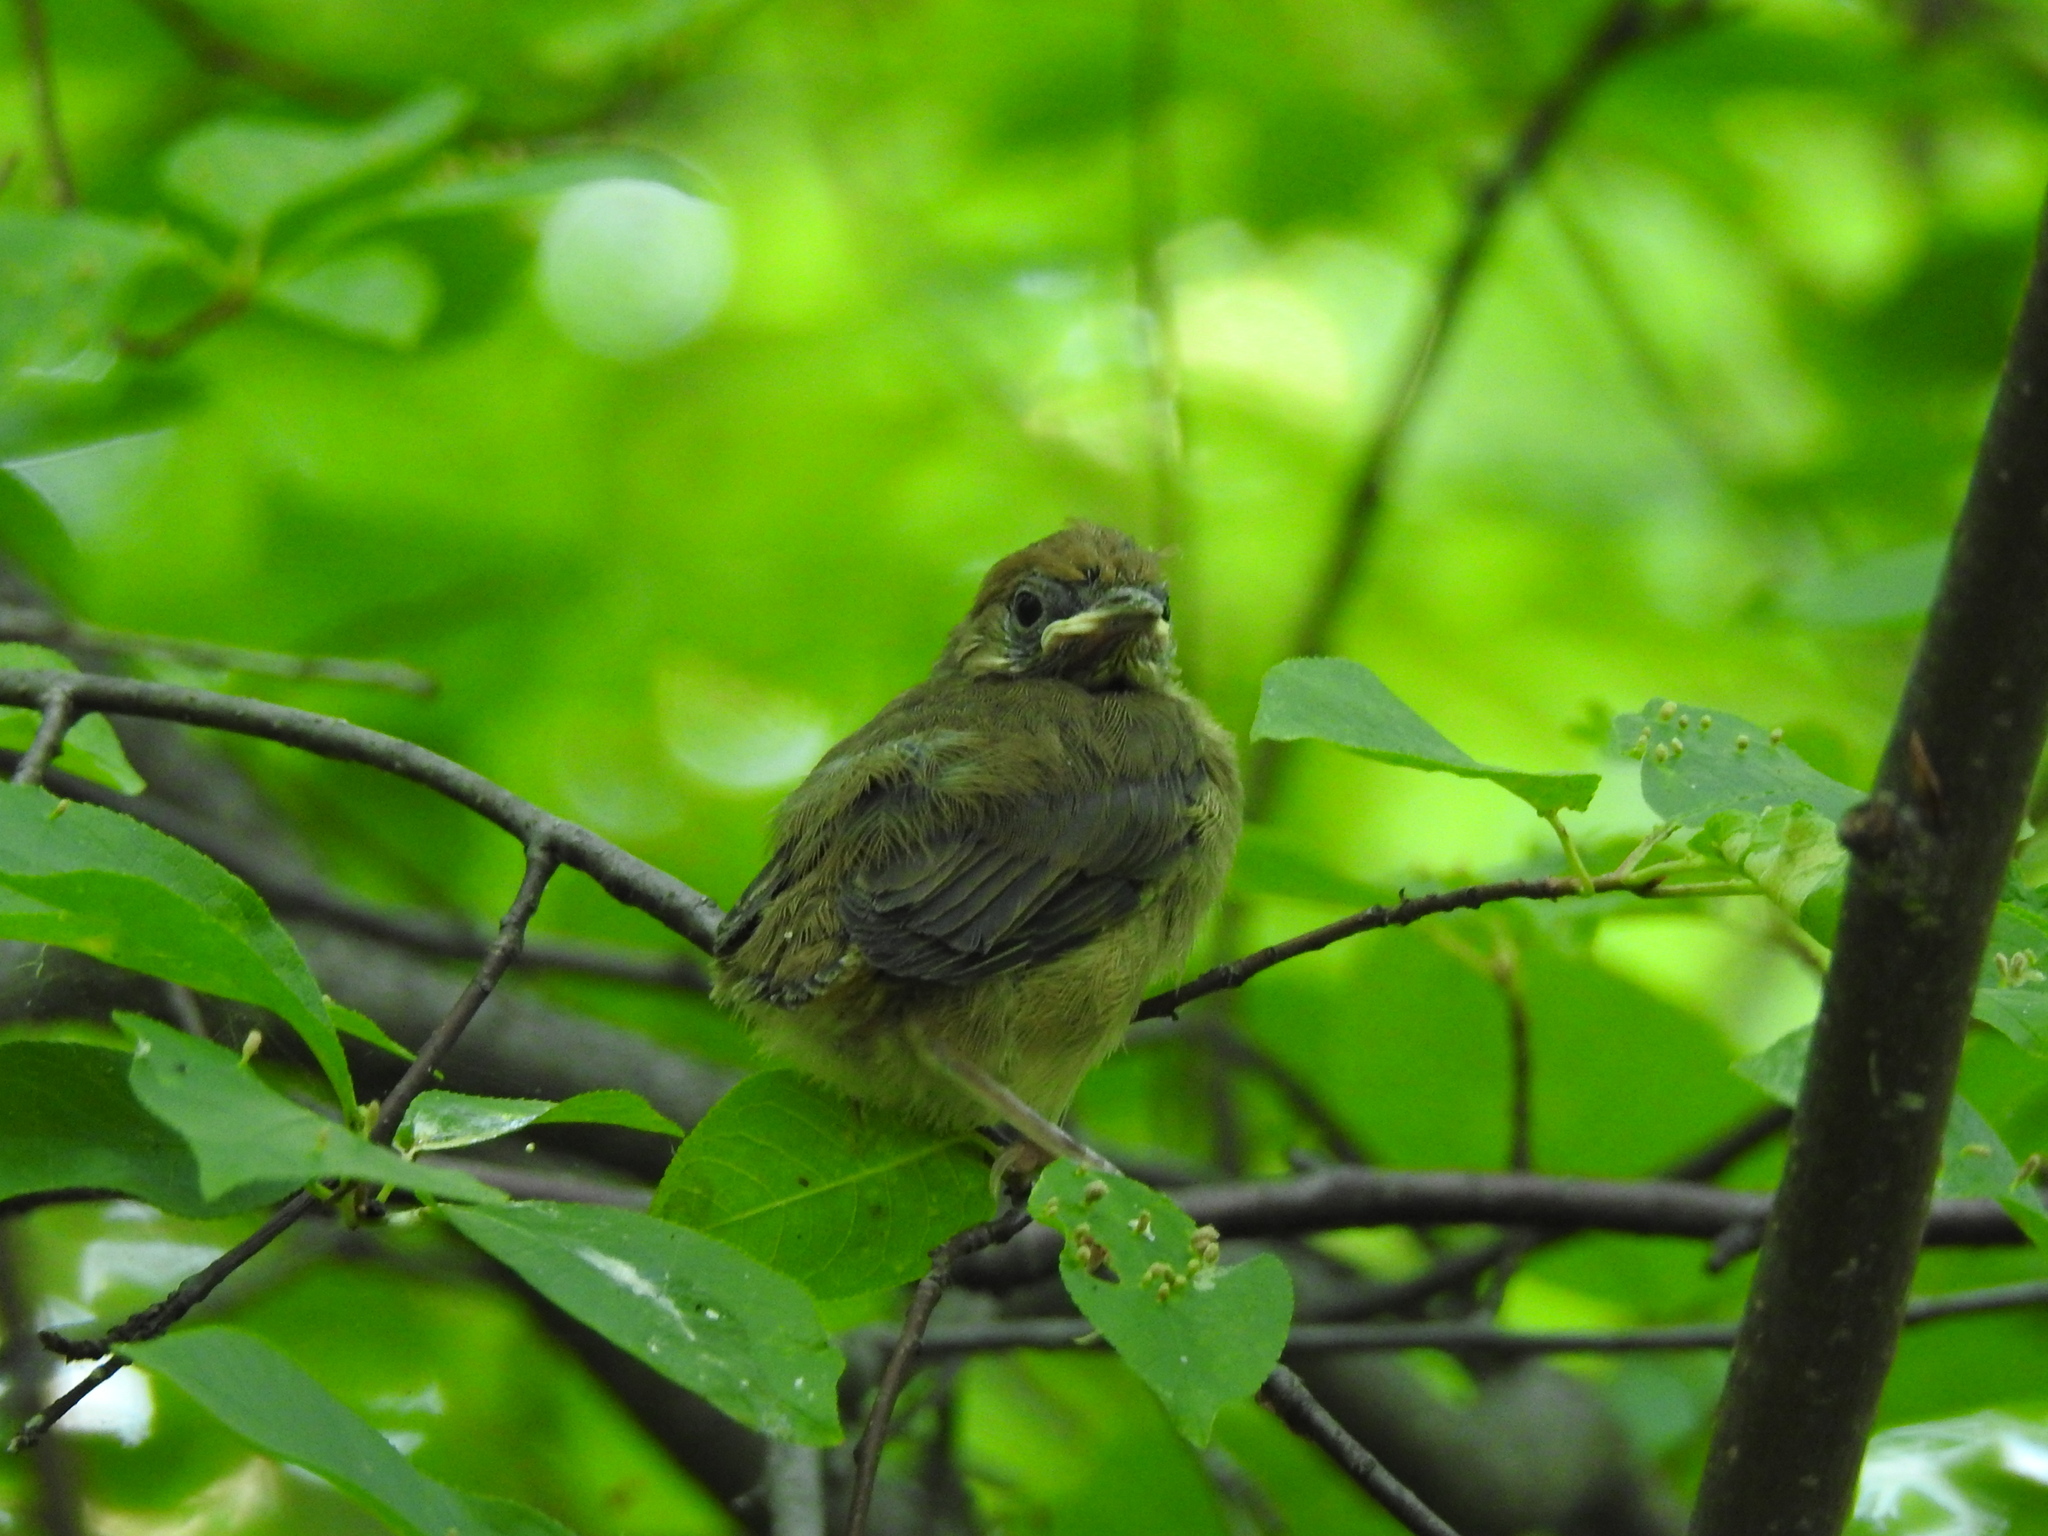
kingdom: Animalia
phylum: Chordata
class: Aves
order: Passeriformes
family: Sylviidae
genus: Sylvia
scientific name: Sylvia atricapilla
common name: Eurasian blackcap
